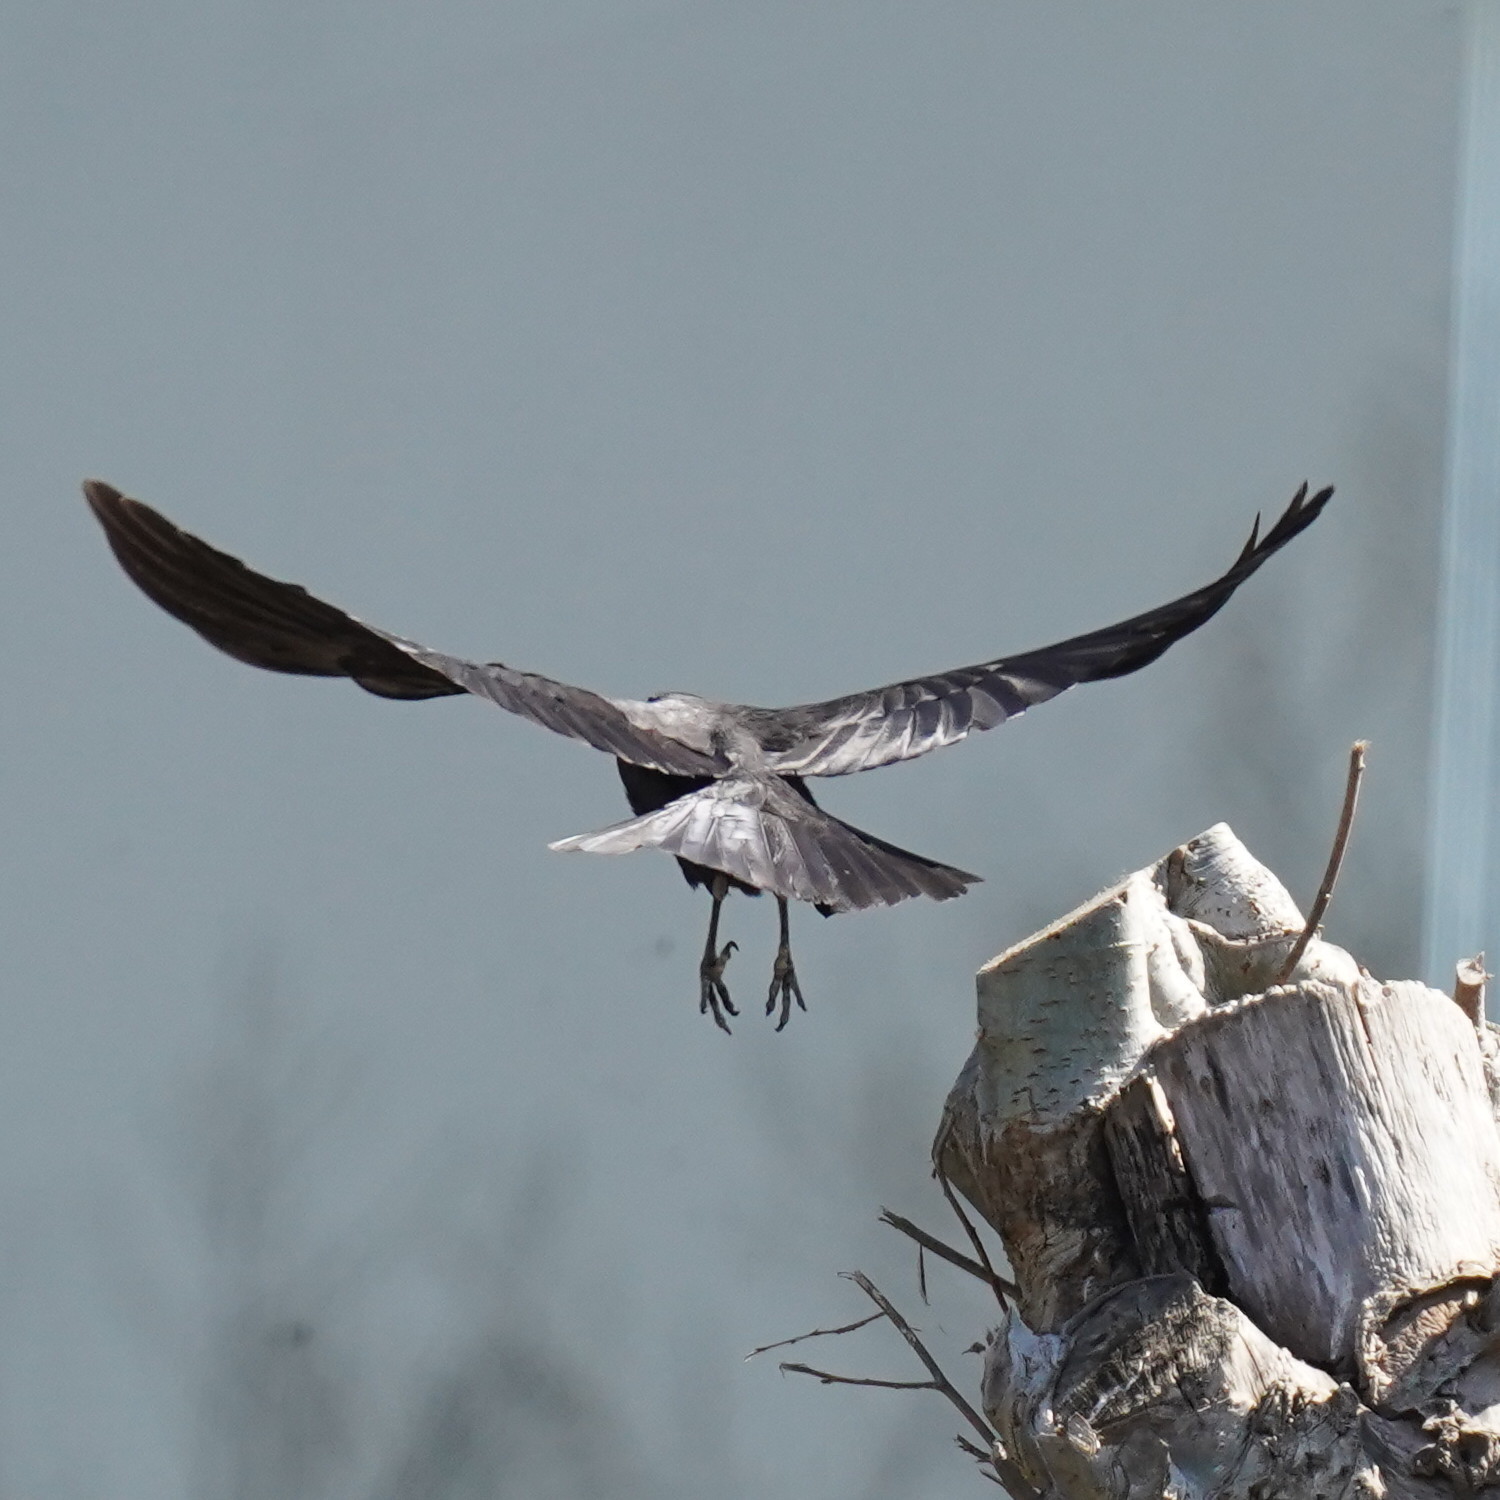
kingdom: Animalia
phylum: Chordata
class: Aves
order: Passeriformes
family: Corvidae
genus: Corvus
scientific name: Corvus corone
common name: Carrion crow
